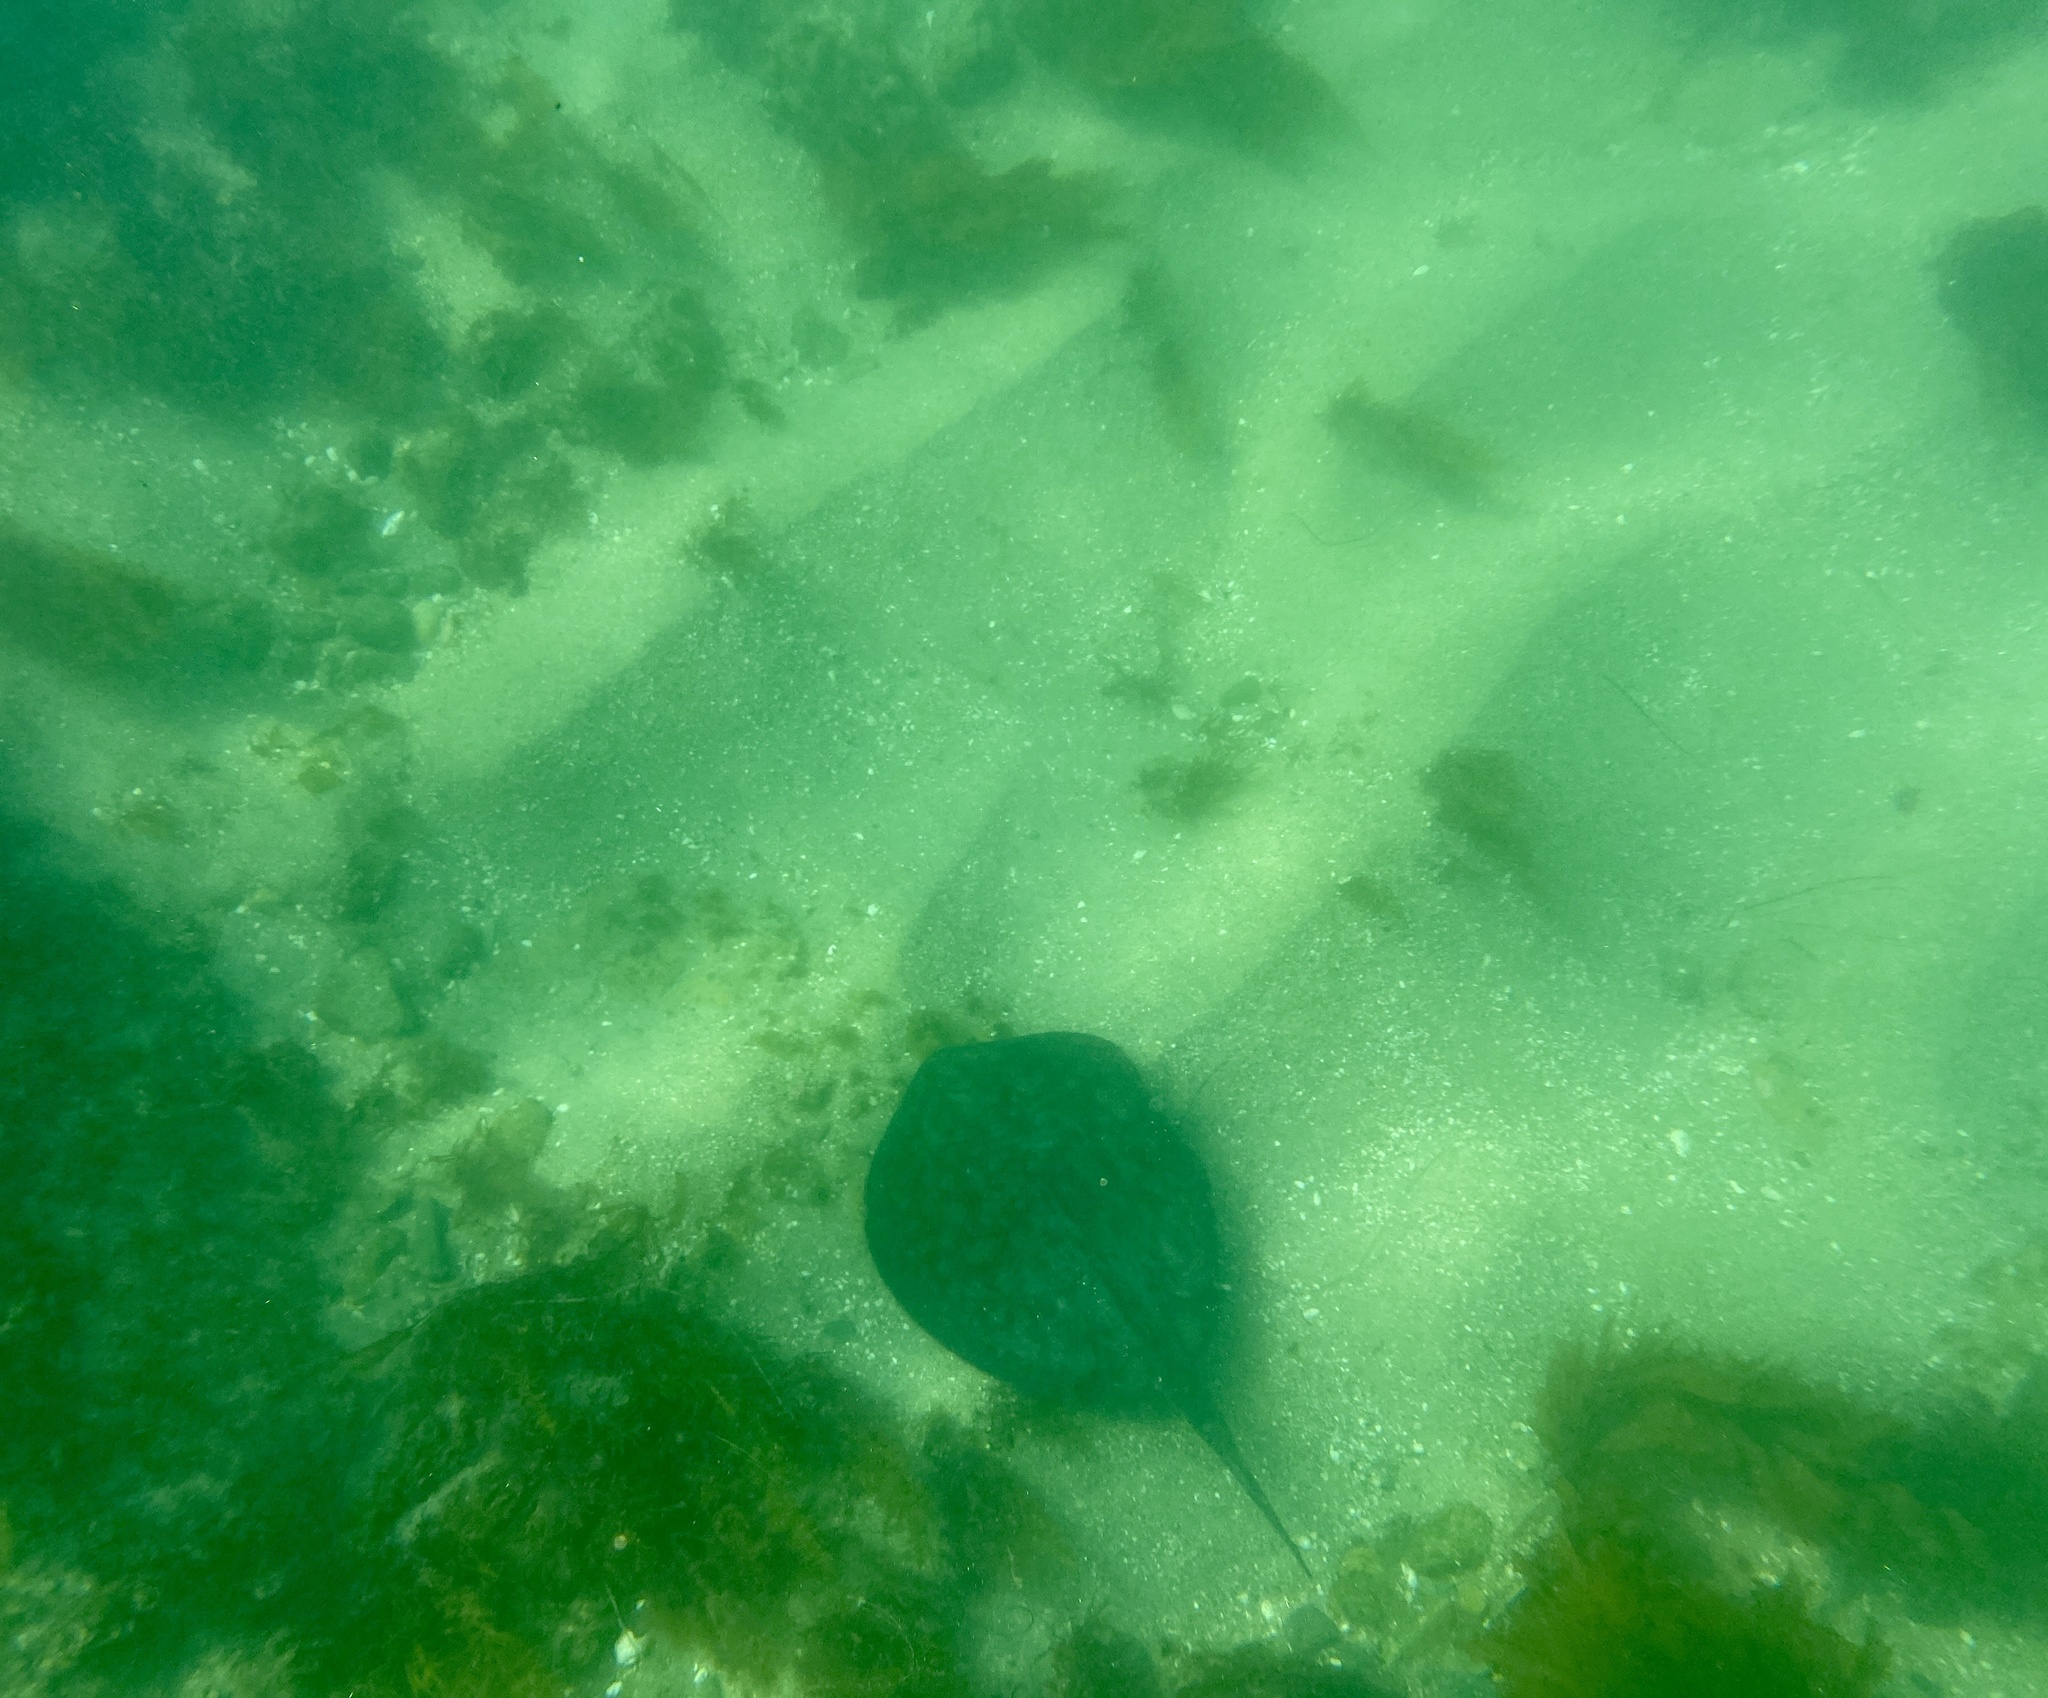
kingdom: Animalia
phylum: Chordata
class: Elasmobranchii
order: Myliobatiformes
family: Urolophidae
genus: Urolophus
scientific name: Urolophus halleri
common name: Round stingray
